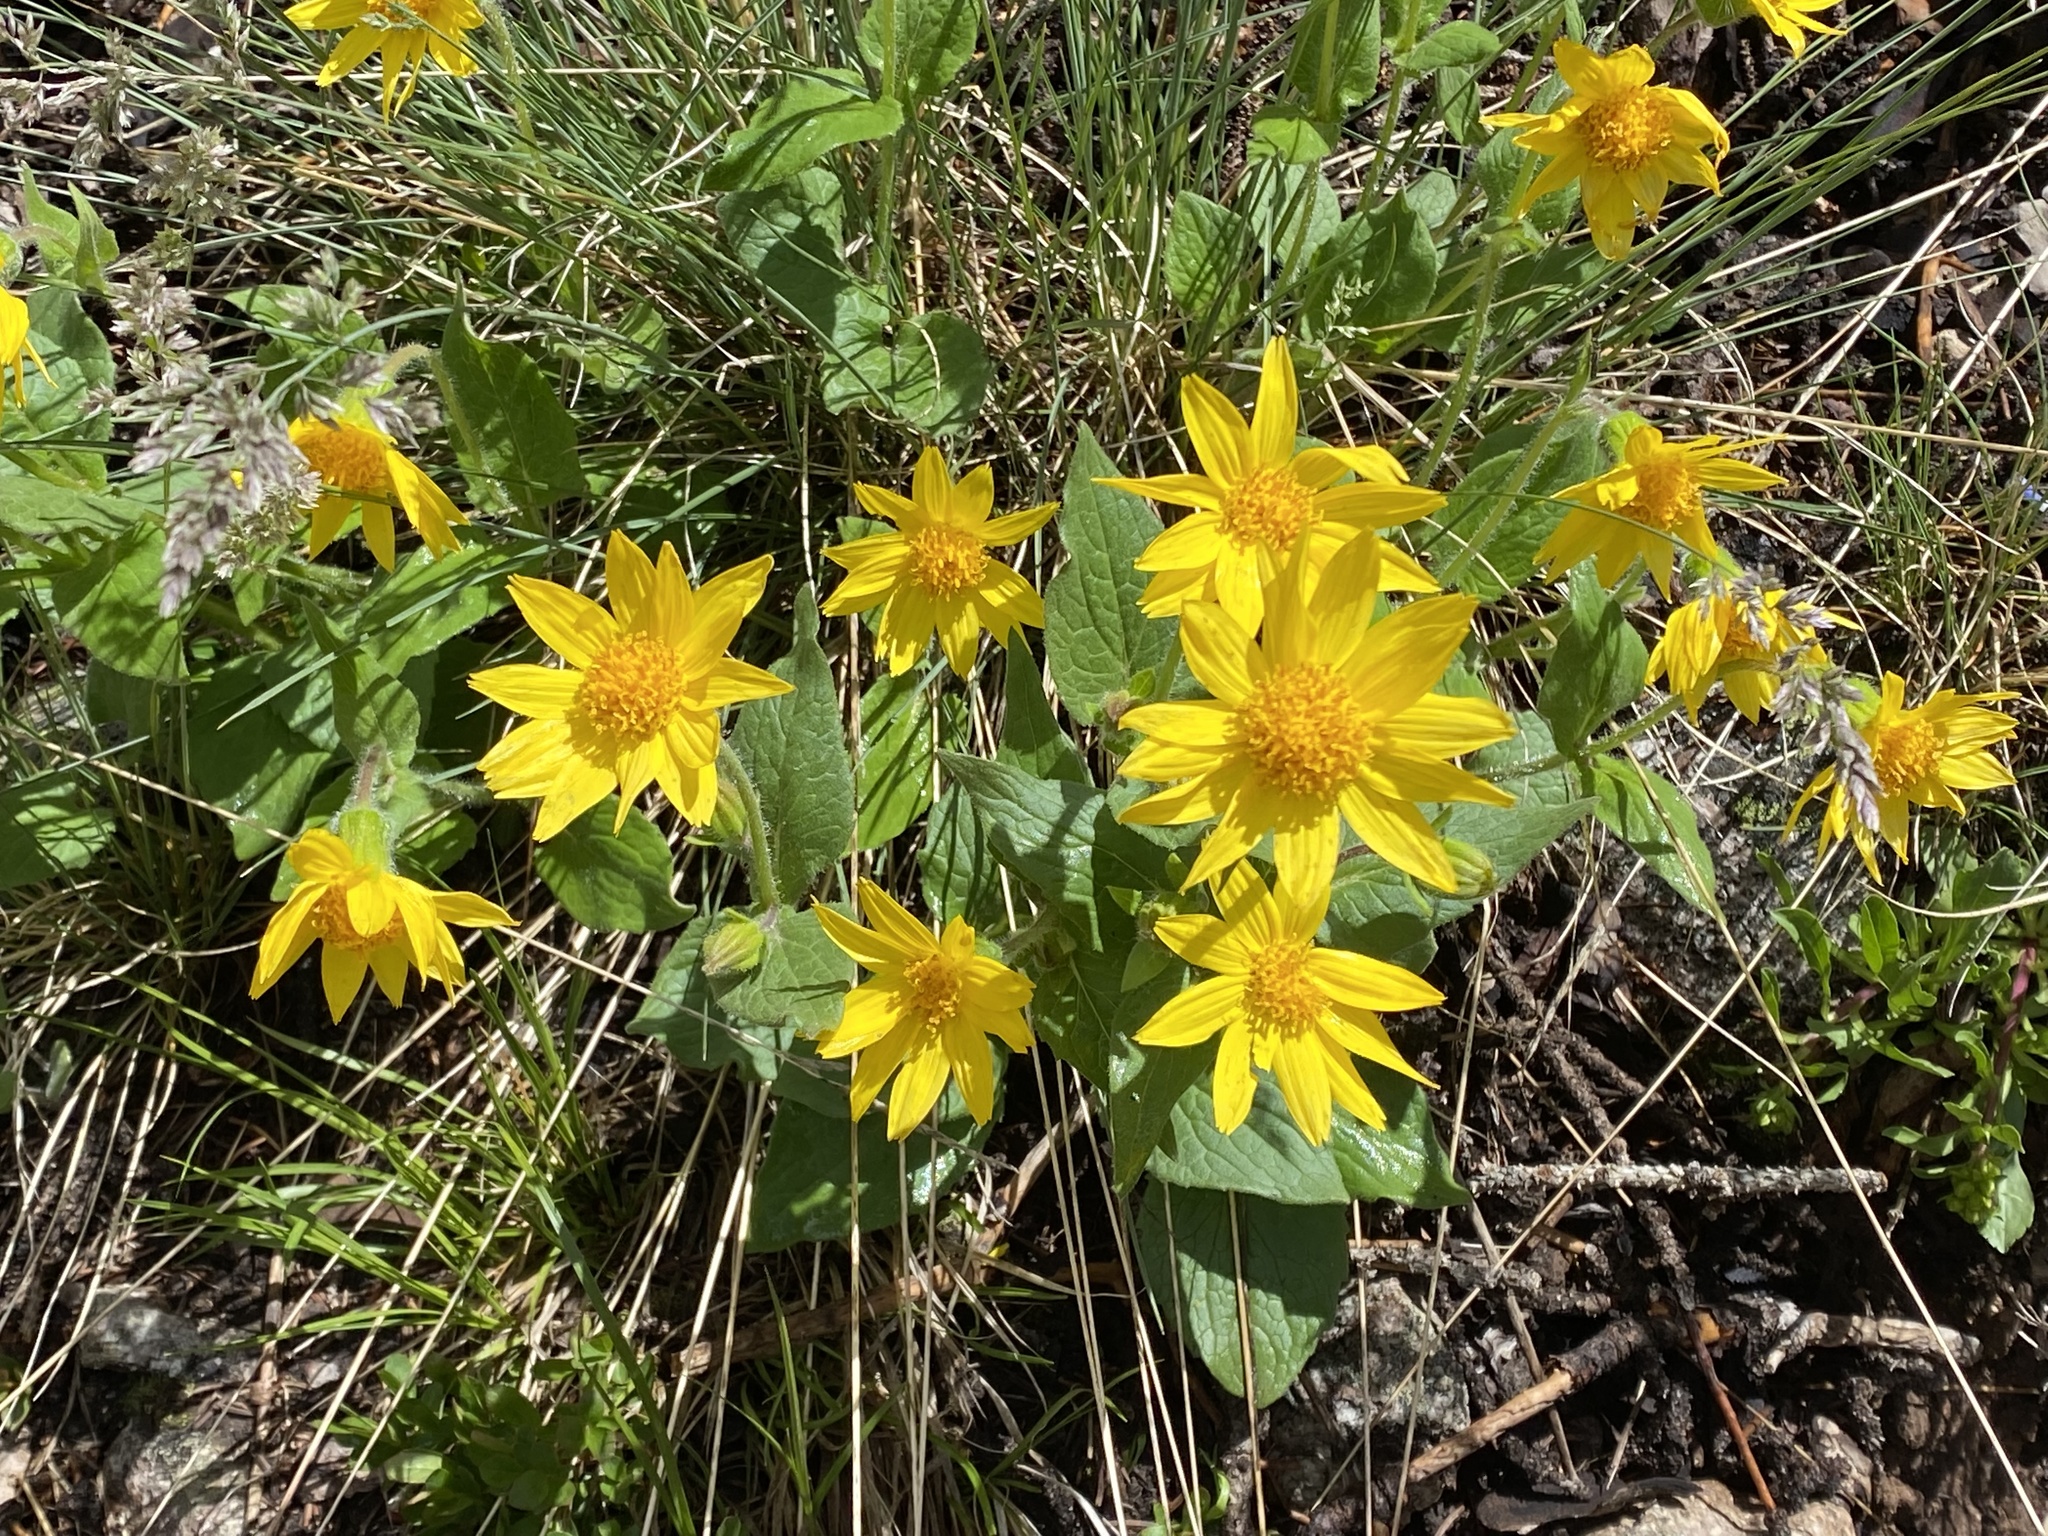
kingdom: Plantae
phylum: Tracheophyta
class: Magnoliopsida
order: Asterales
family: Asteraceae
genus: Arnica
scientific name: Arnica cordifolia
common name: Heart-leaf arnica
